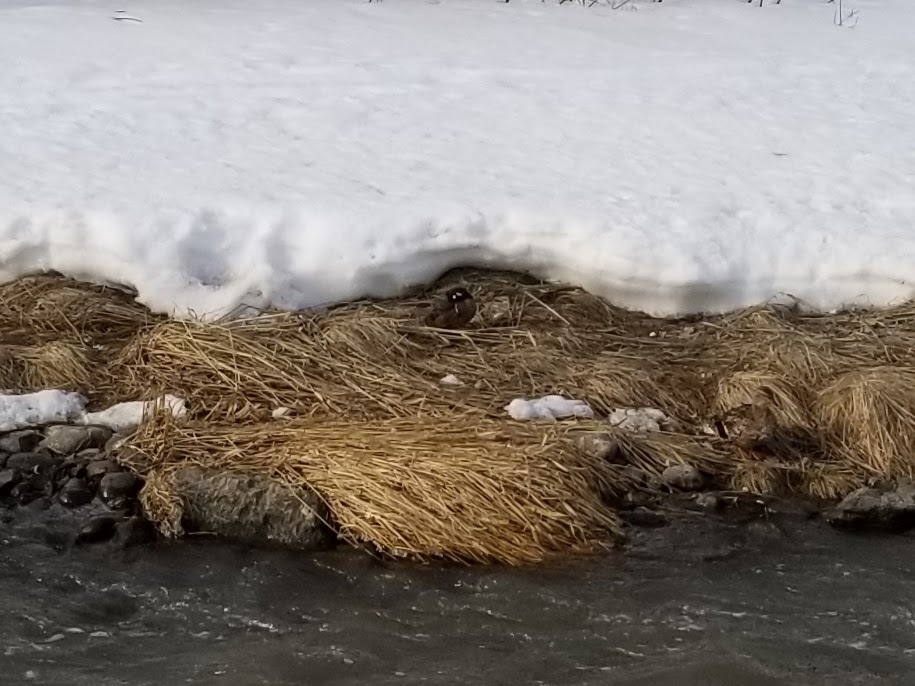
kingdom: Animalia
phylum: Chordata
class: Aves
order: Anseriformes
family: Anatidae
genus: Histrionicus
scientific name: Histrionicus histrionicus
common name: Harlequin duck
